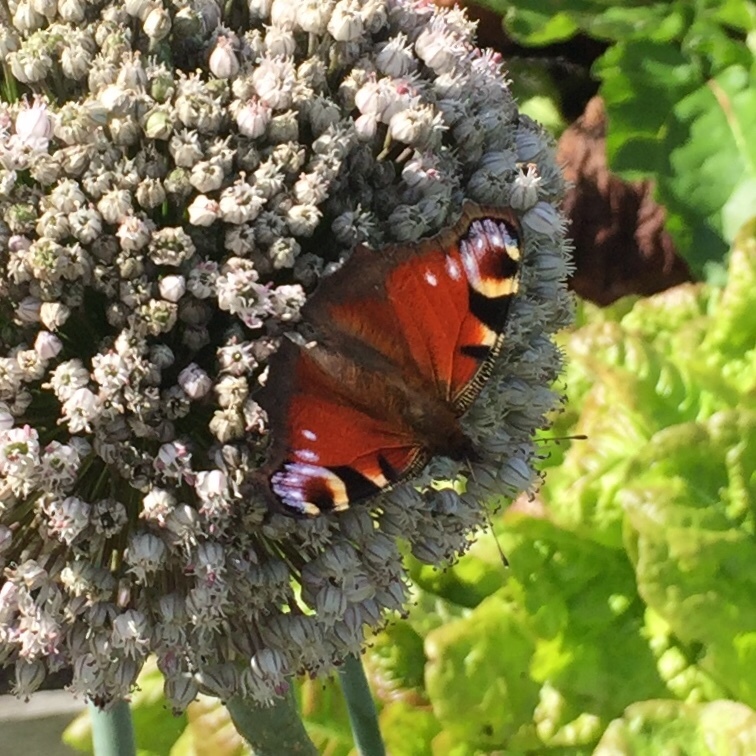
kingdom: Animalia
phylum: Arthropoda
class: Insecta
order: Lepidoptera
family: Nymphalidae
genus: Aglais
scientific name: Aglais io
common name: Peacock
